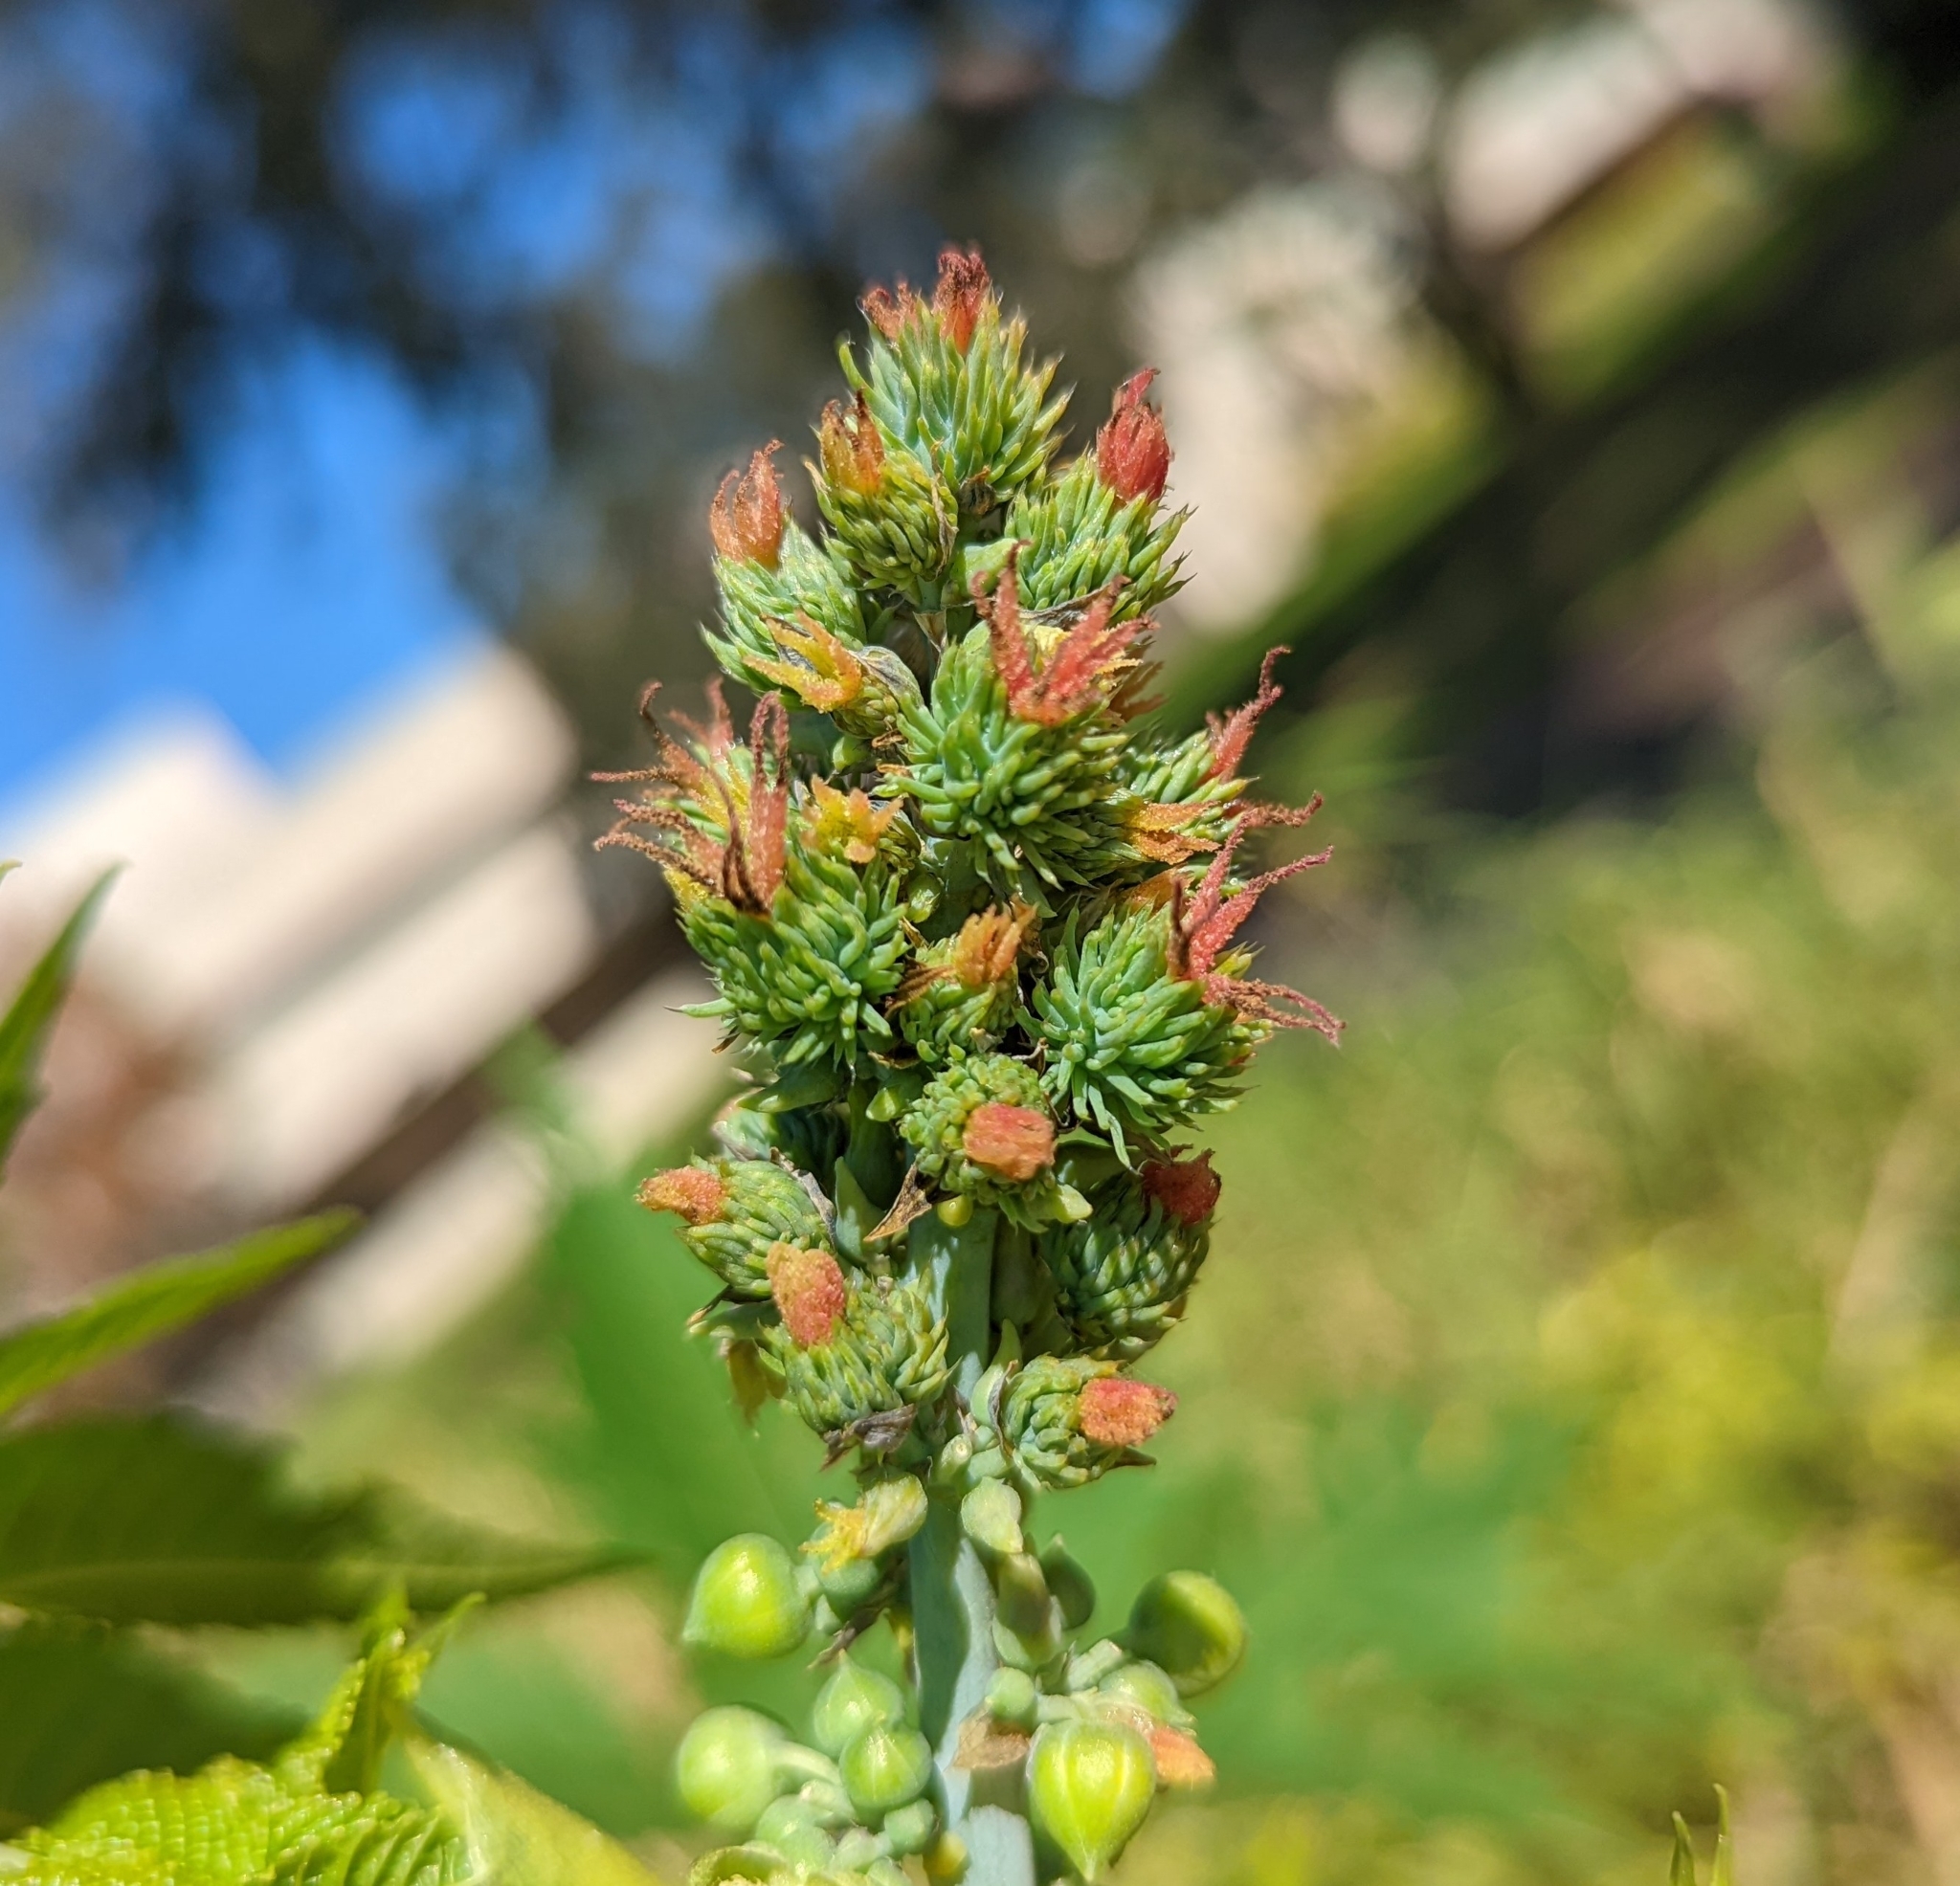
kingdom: Plantae
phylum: Tracheophyta
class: Magnoliopsida
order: Malpighiales
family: Euphorbiaceae
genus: Ricinus
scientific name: Ricinus communis
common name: Castor-oil-plant
